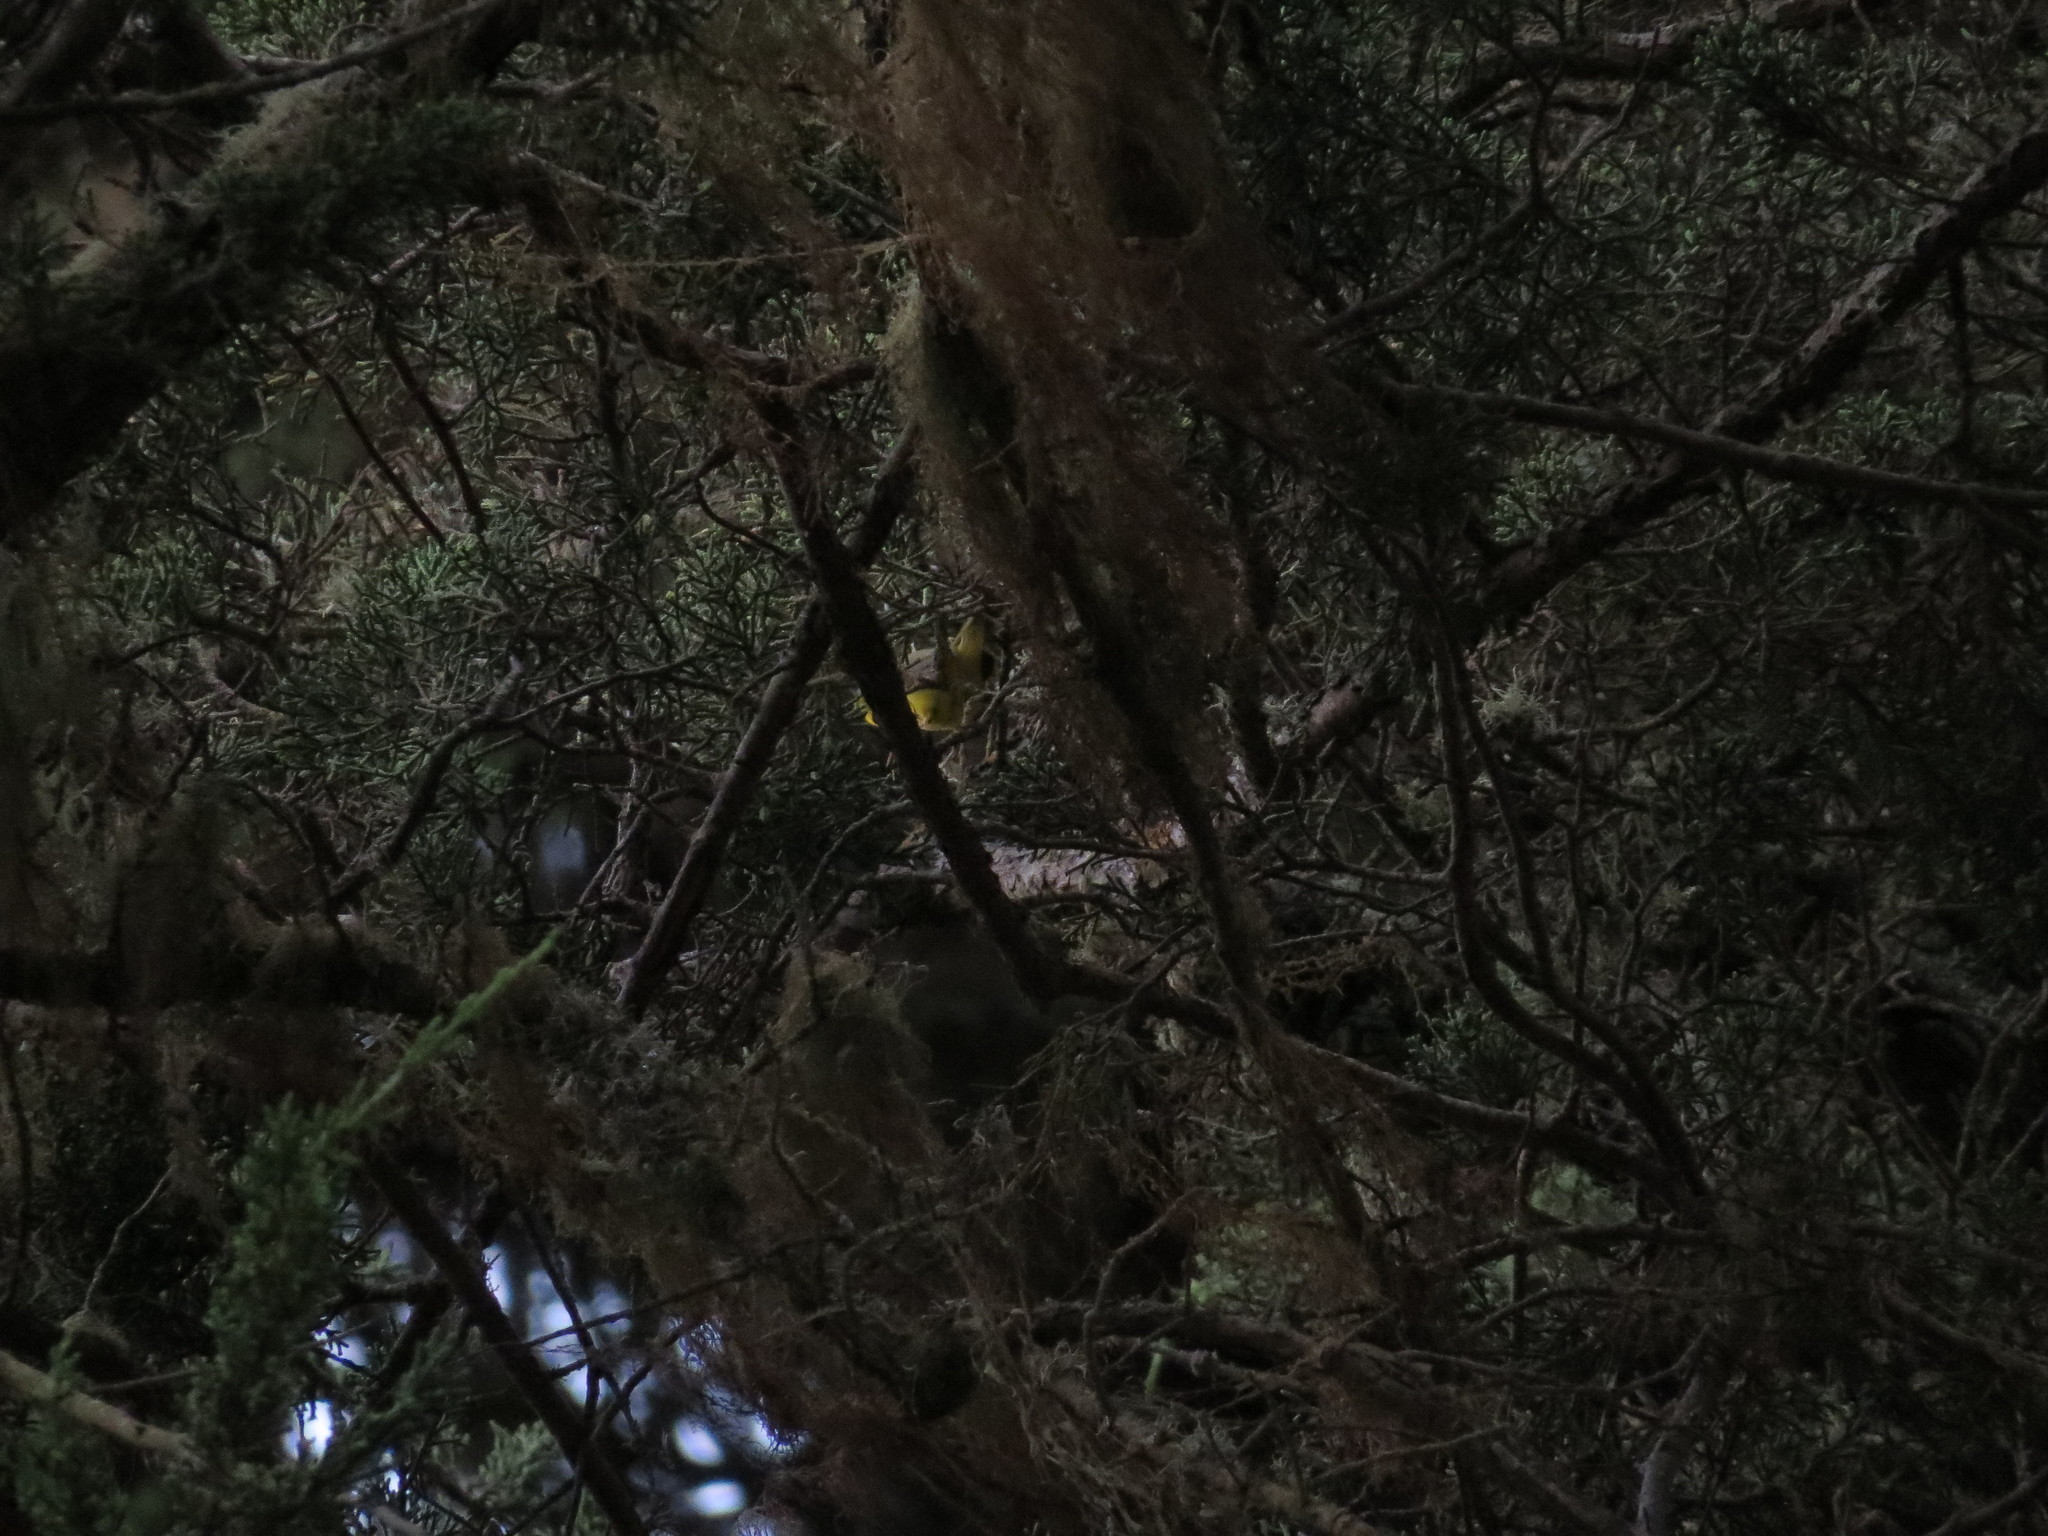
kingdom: Animalia
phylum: Chordata
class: Aves
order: Passeriformes
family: Parulidae
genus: Cardellina
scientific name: Cardellina pusilla
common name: Wilson's warbler
